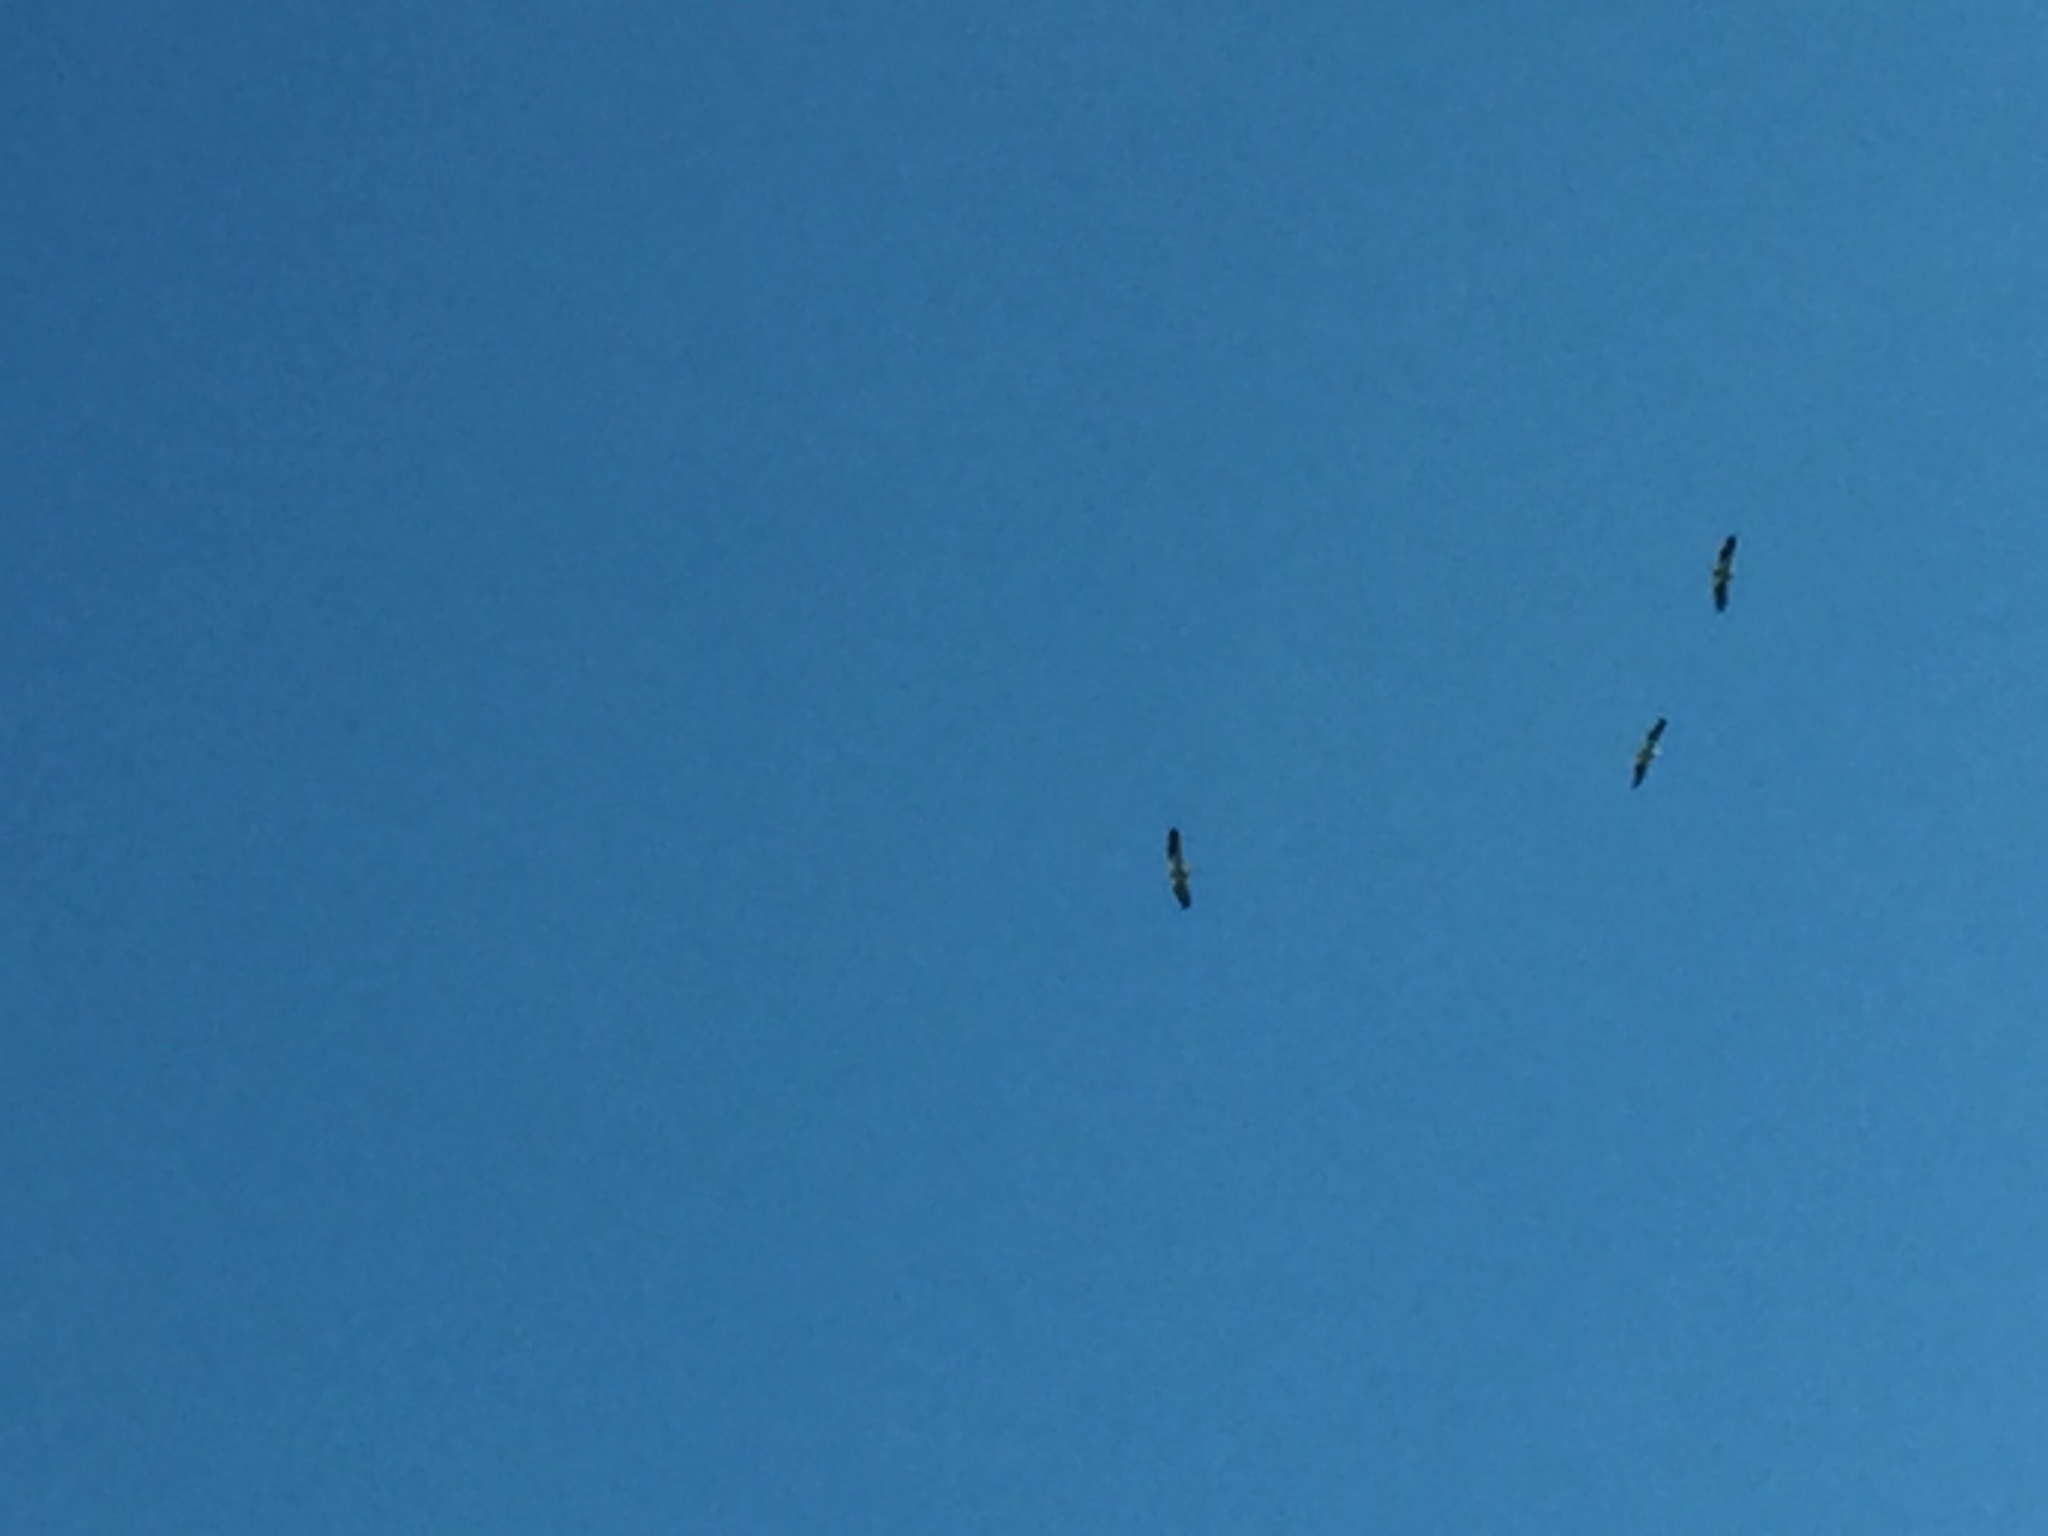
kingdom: Animalia
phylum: Chordata
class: Aves
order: Pelecaniformes
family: Pelecanidae
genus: Pelecanus
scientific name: Pelecanus erythrorhynchos
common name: American white pelican
